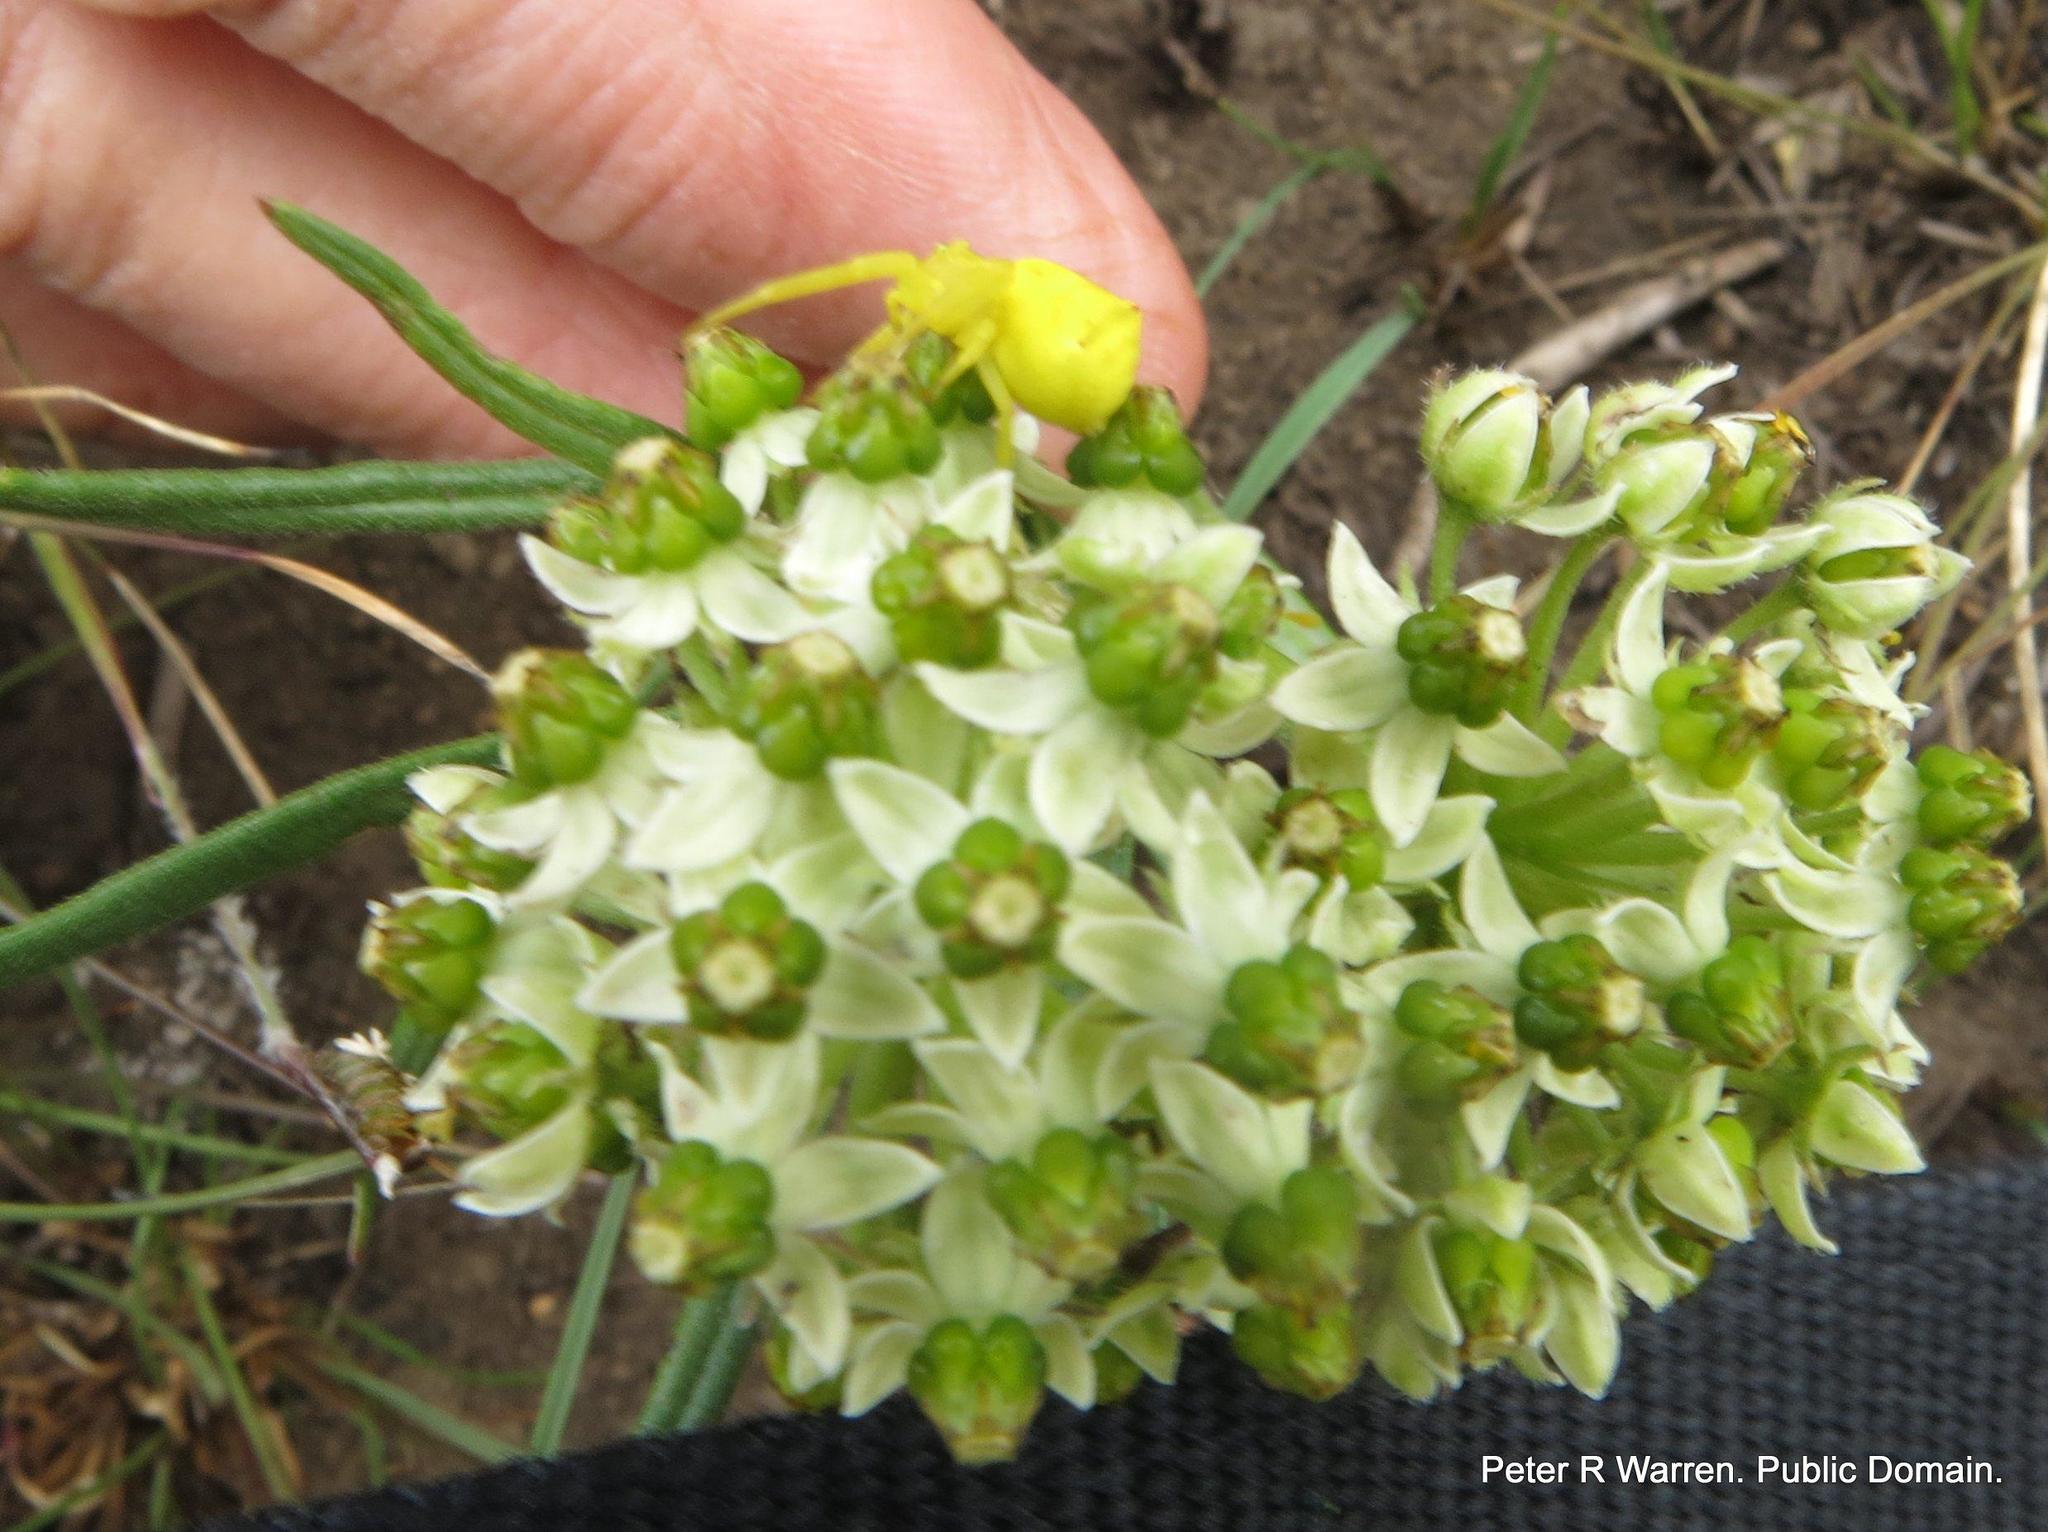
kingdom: Plantae
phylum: Tracheophyta
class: Magnoliopsida
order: Gentianales
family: Apocynaceae
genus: Xysmalobium
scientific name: Xysmalobium involucratum
